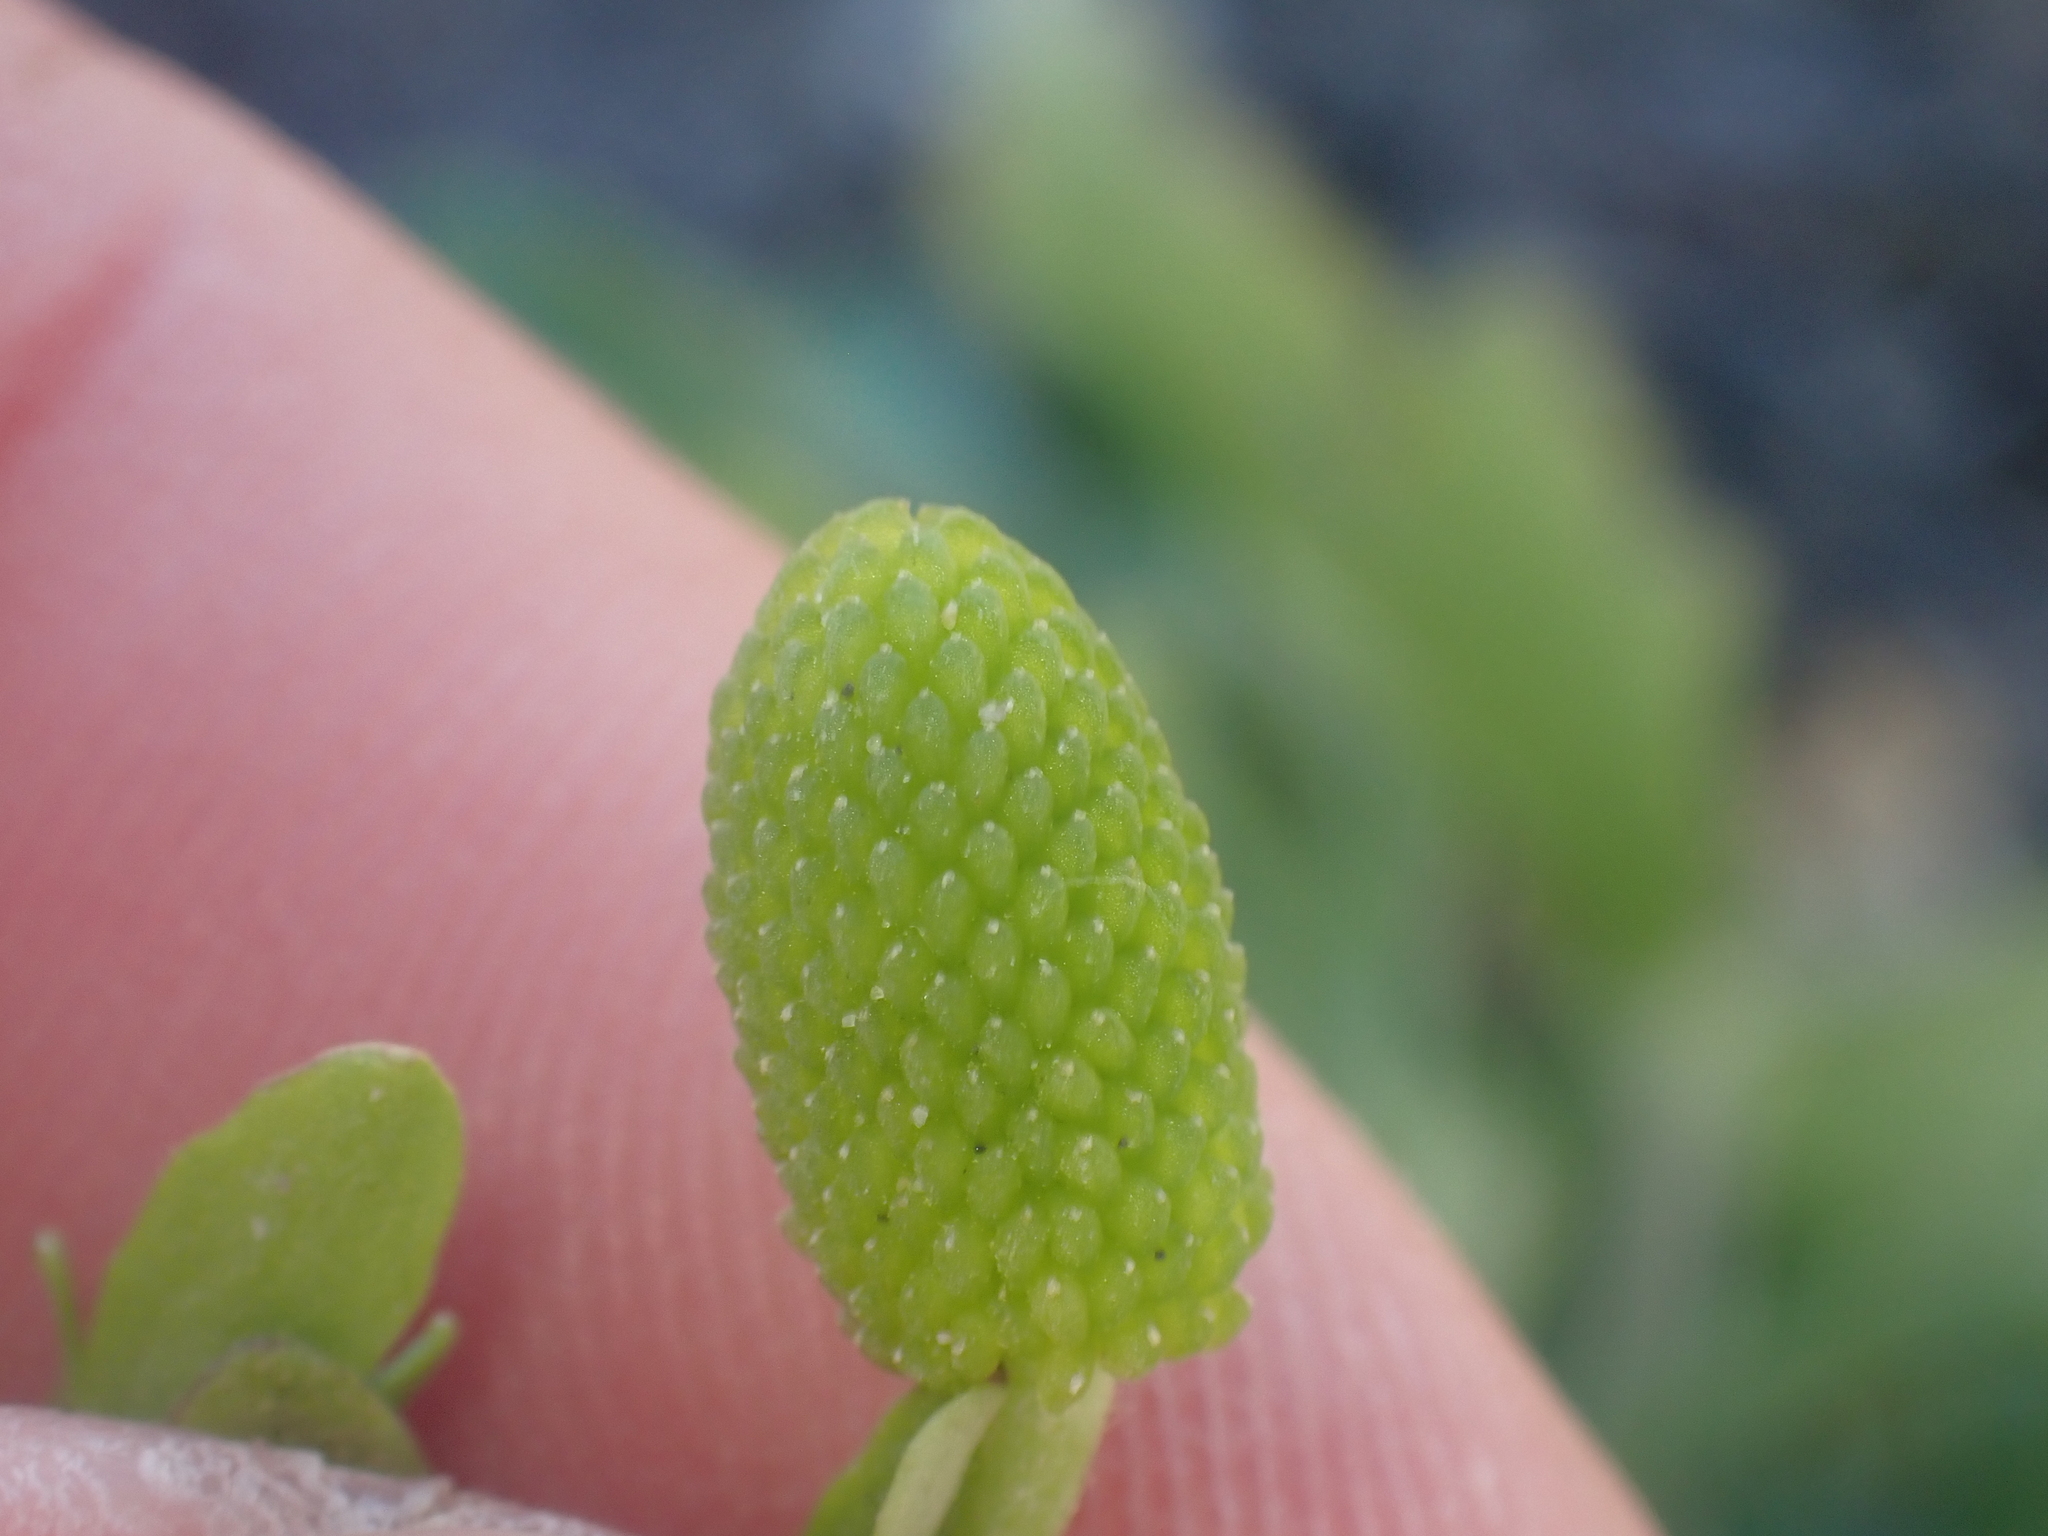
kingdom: Plantae
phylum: Tracheophyta
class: Magnoliopsida
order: Ranunculales
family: Ranunculaceae
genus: Ranunculus
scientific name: Ranunculus sceleratus
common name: Celery-leaved buttercup
